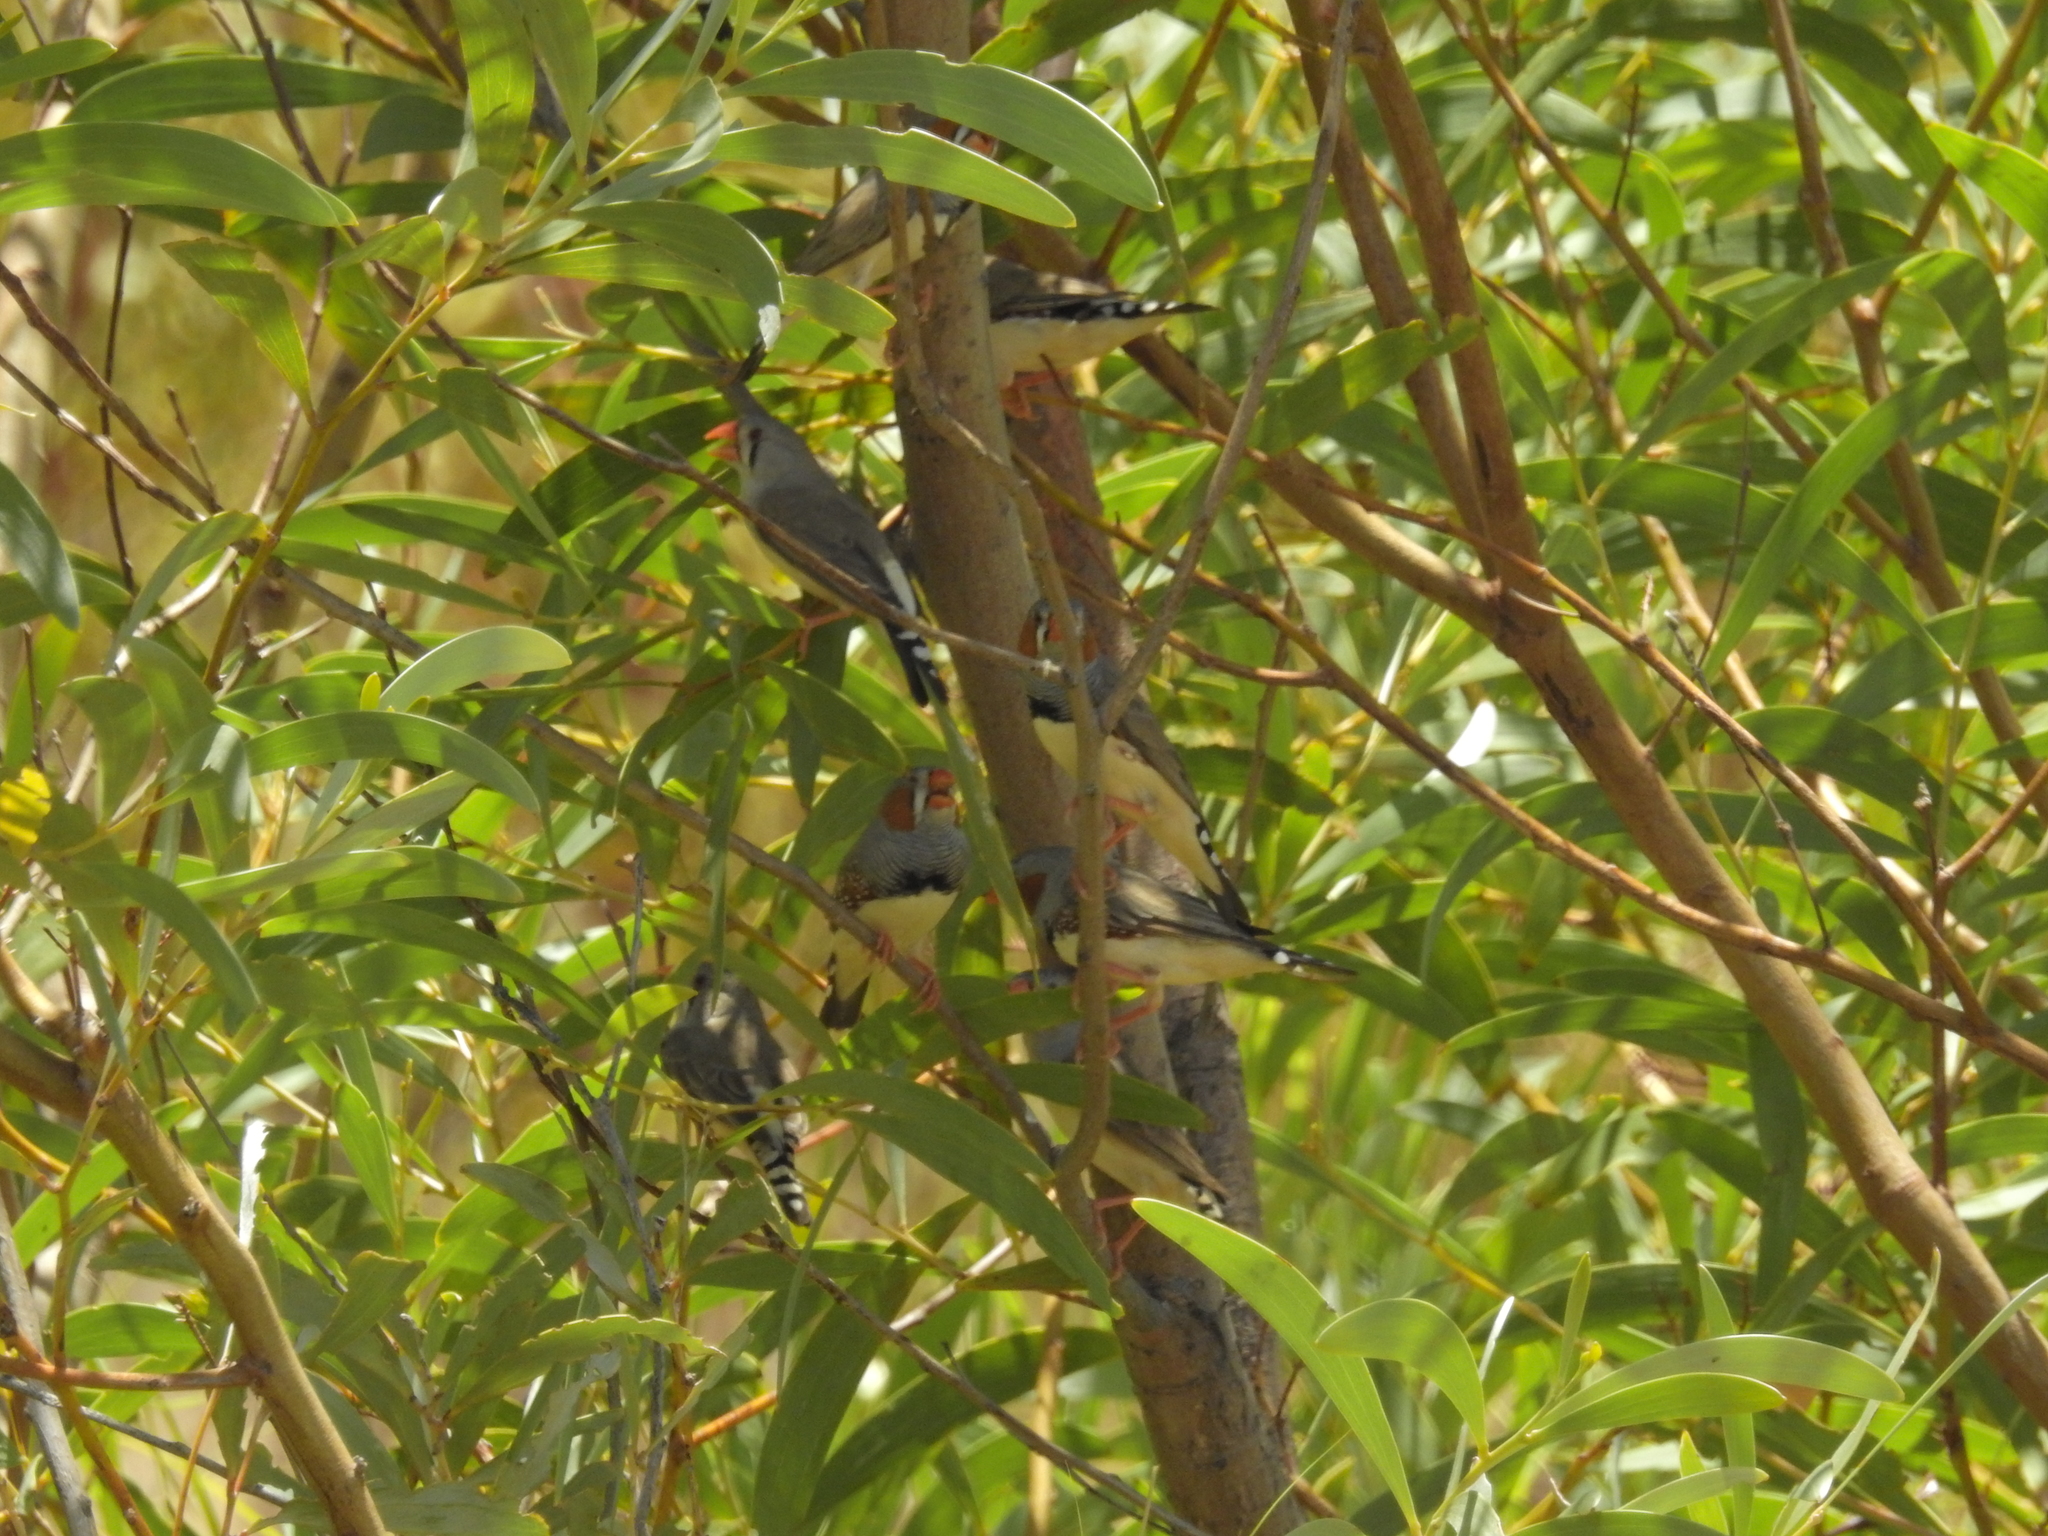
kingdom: Animalia
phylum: Chordata
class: Aves
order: Passeriformes
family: Estrildidae
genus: Taeniopygia
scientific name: Taeniopygia guttata
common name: Zebra finch
